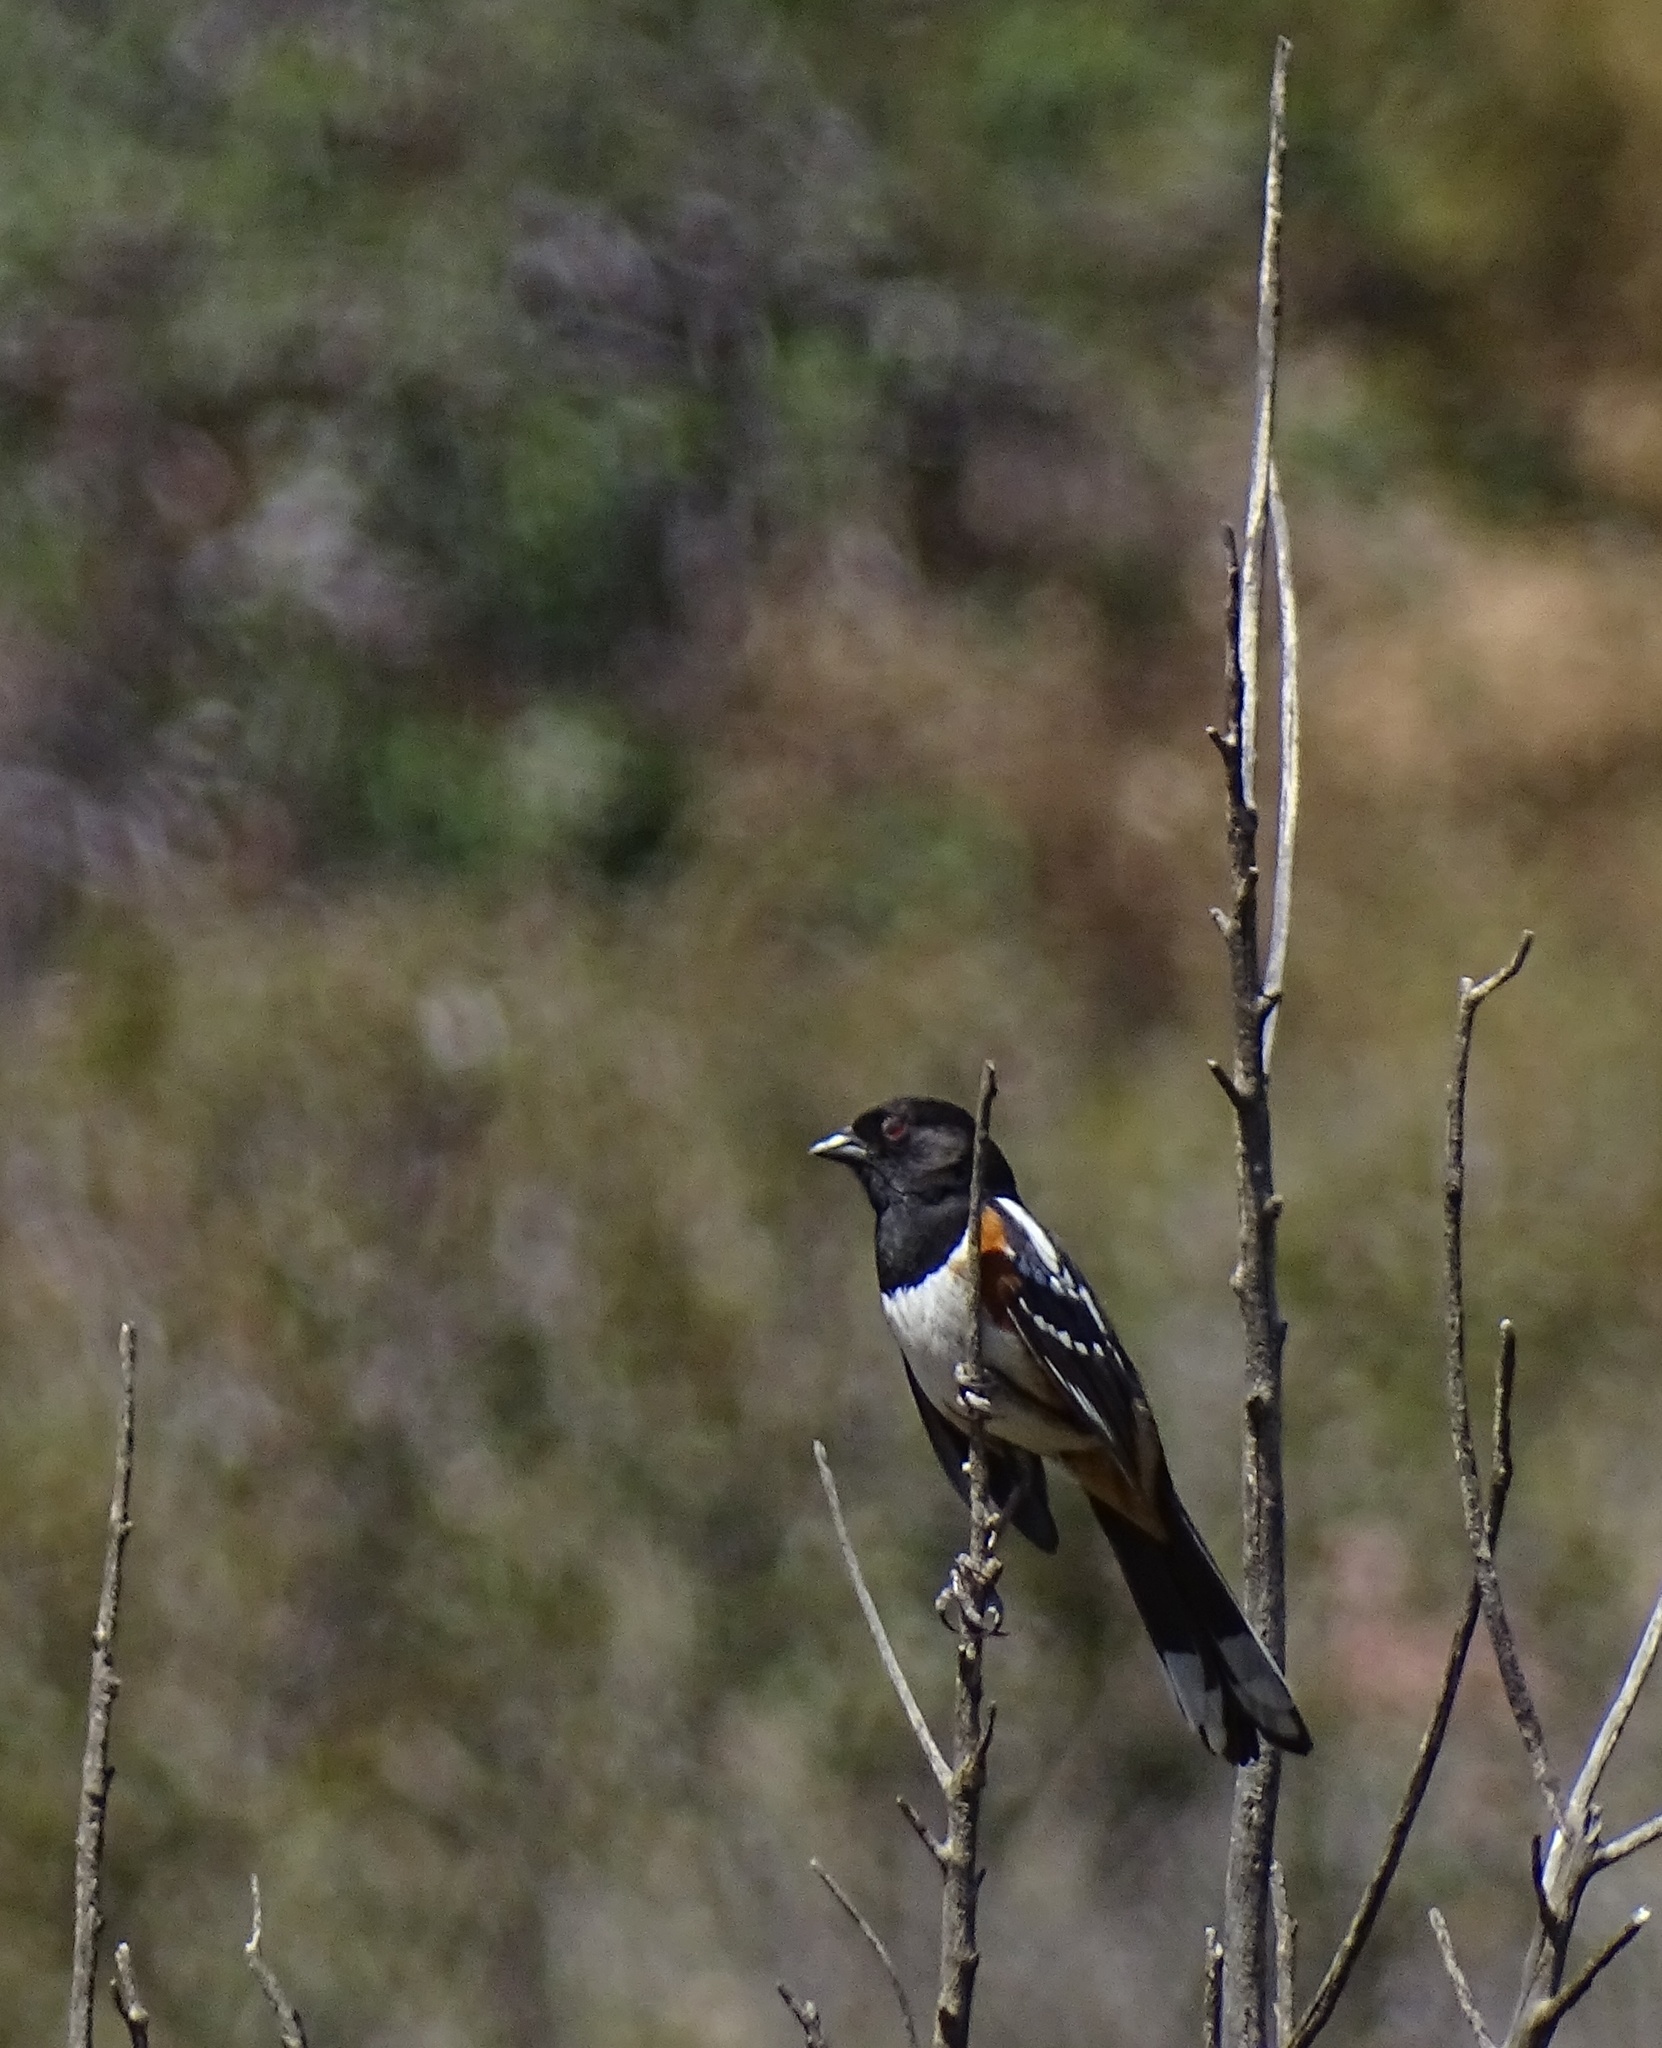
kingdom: Animalia
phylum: Chordata
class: Aves
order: Passeriformes
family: Passerellidae
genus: Pipilo
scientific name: Pipilo maculatus
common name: Spotted towhee
